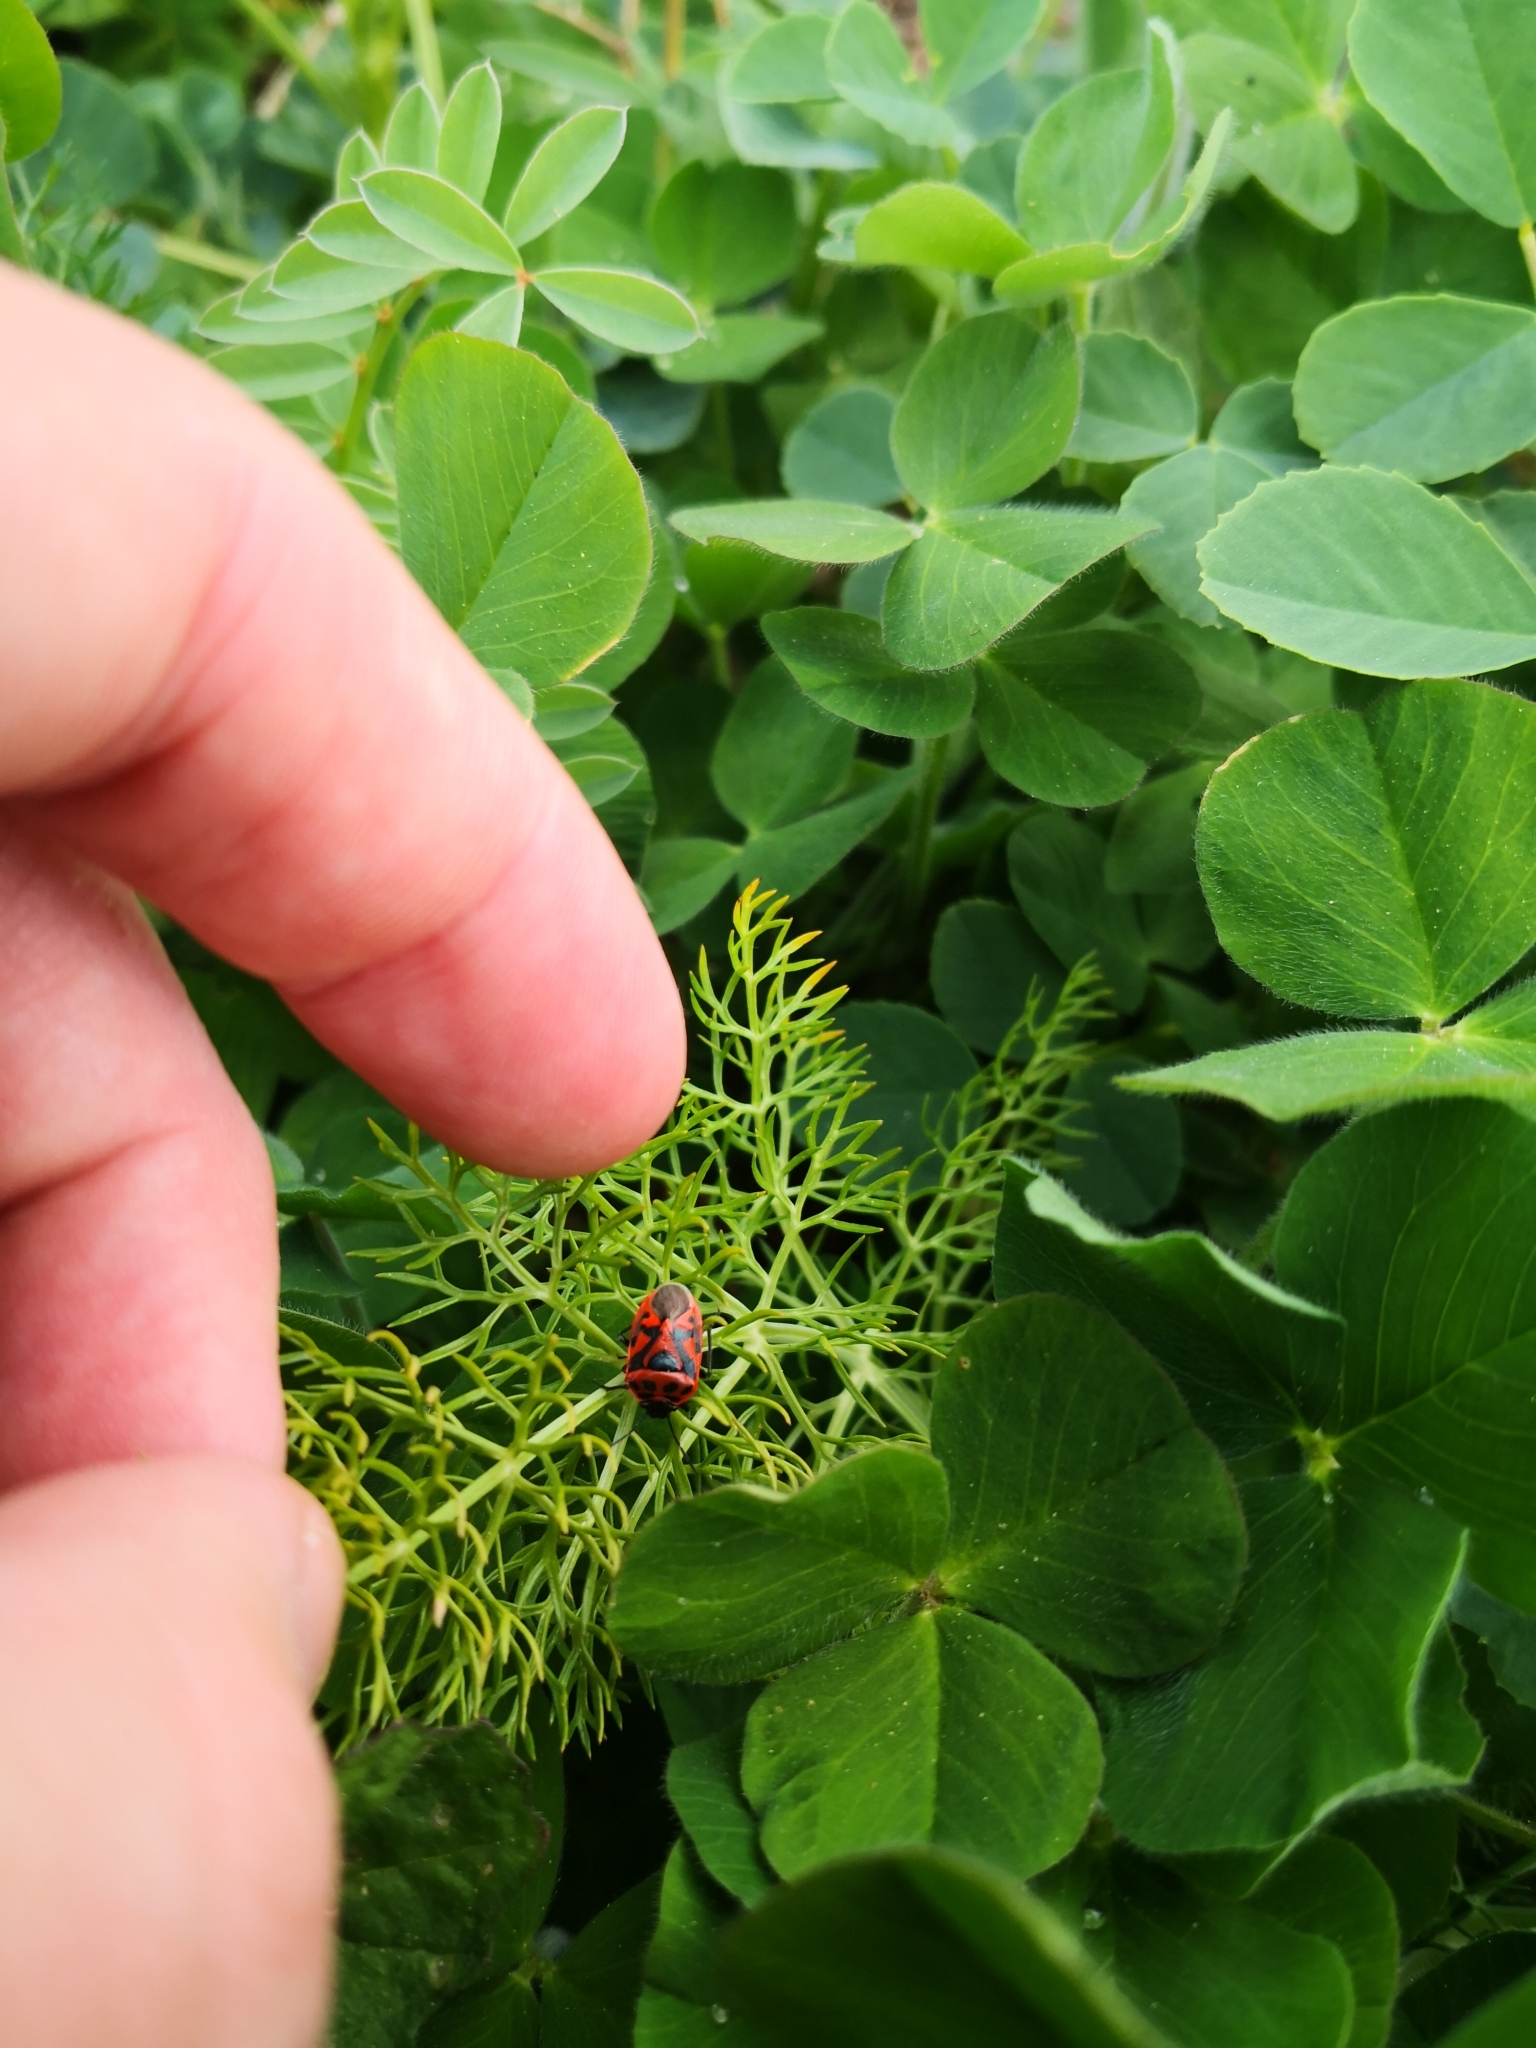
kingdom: Animalia
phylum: Arthropoda
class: Insecta
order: Hemiptera
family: Pentatomidae
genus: Eurydema
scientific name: Eurydema ornata
